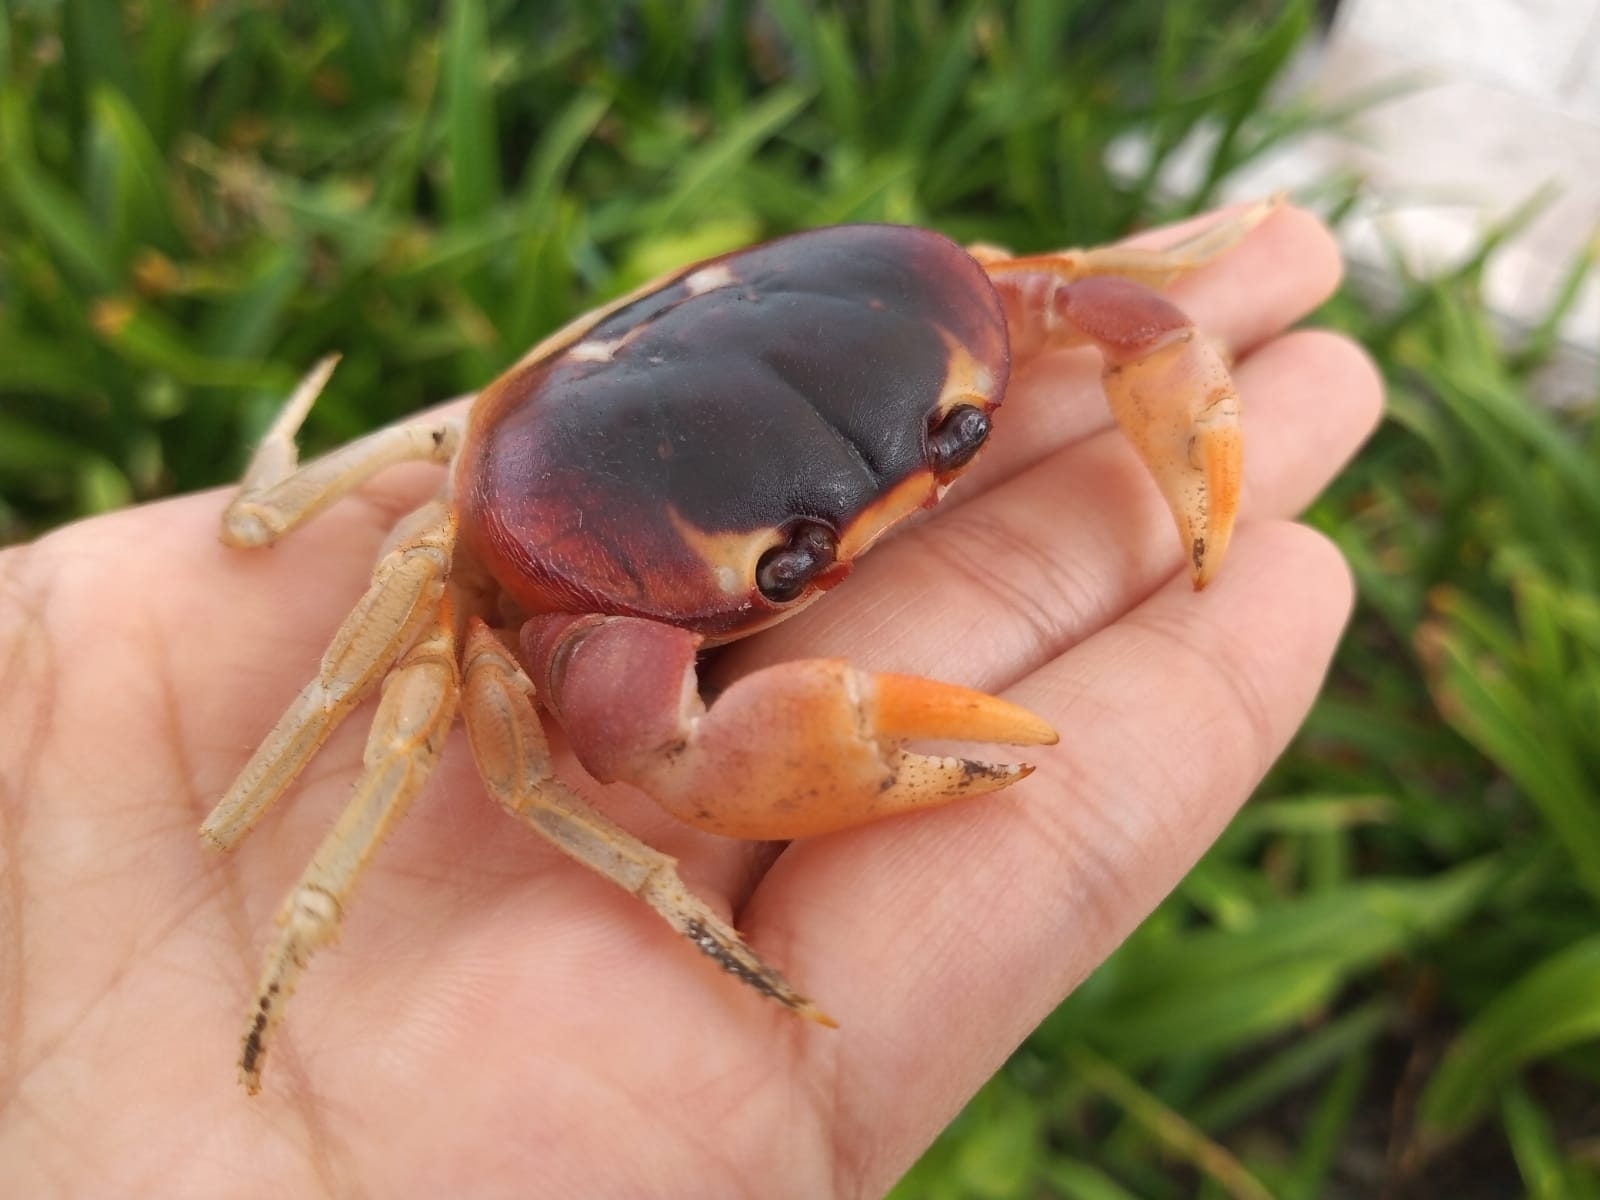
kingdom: Animalia
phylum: Arthropoda
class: Malacostraca
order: Decapoda
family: Gecarcinidae
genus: Gecarcinus
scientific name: Gecarcinus lateralis
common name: Bermuda land crab
